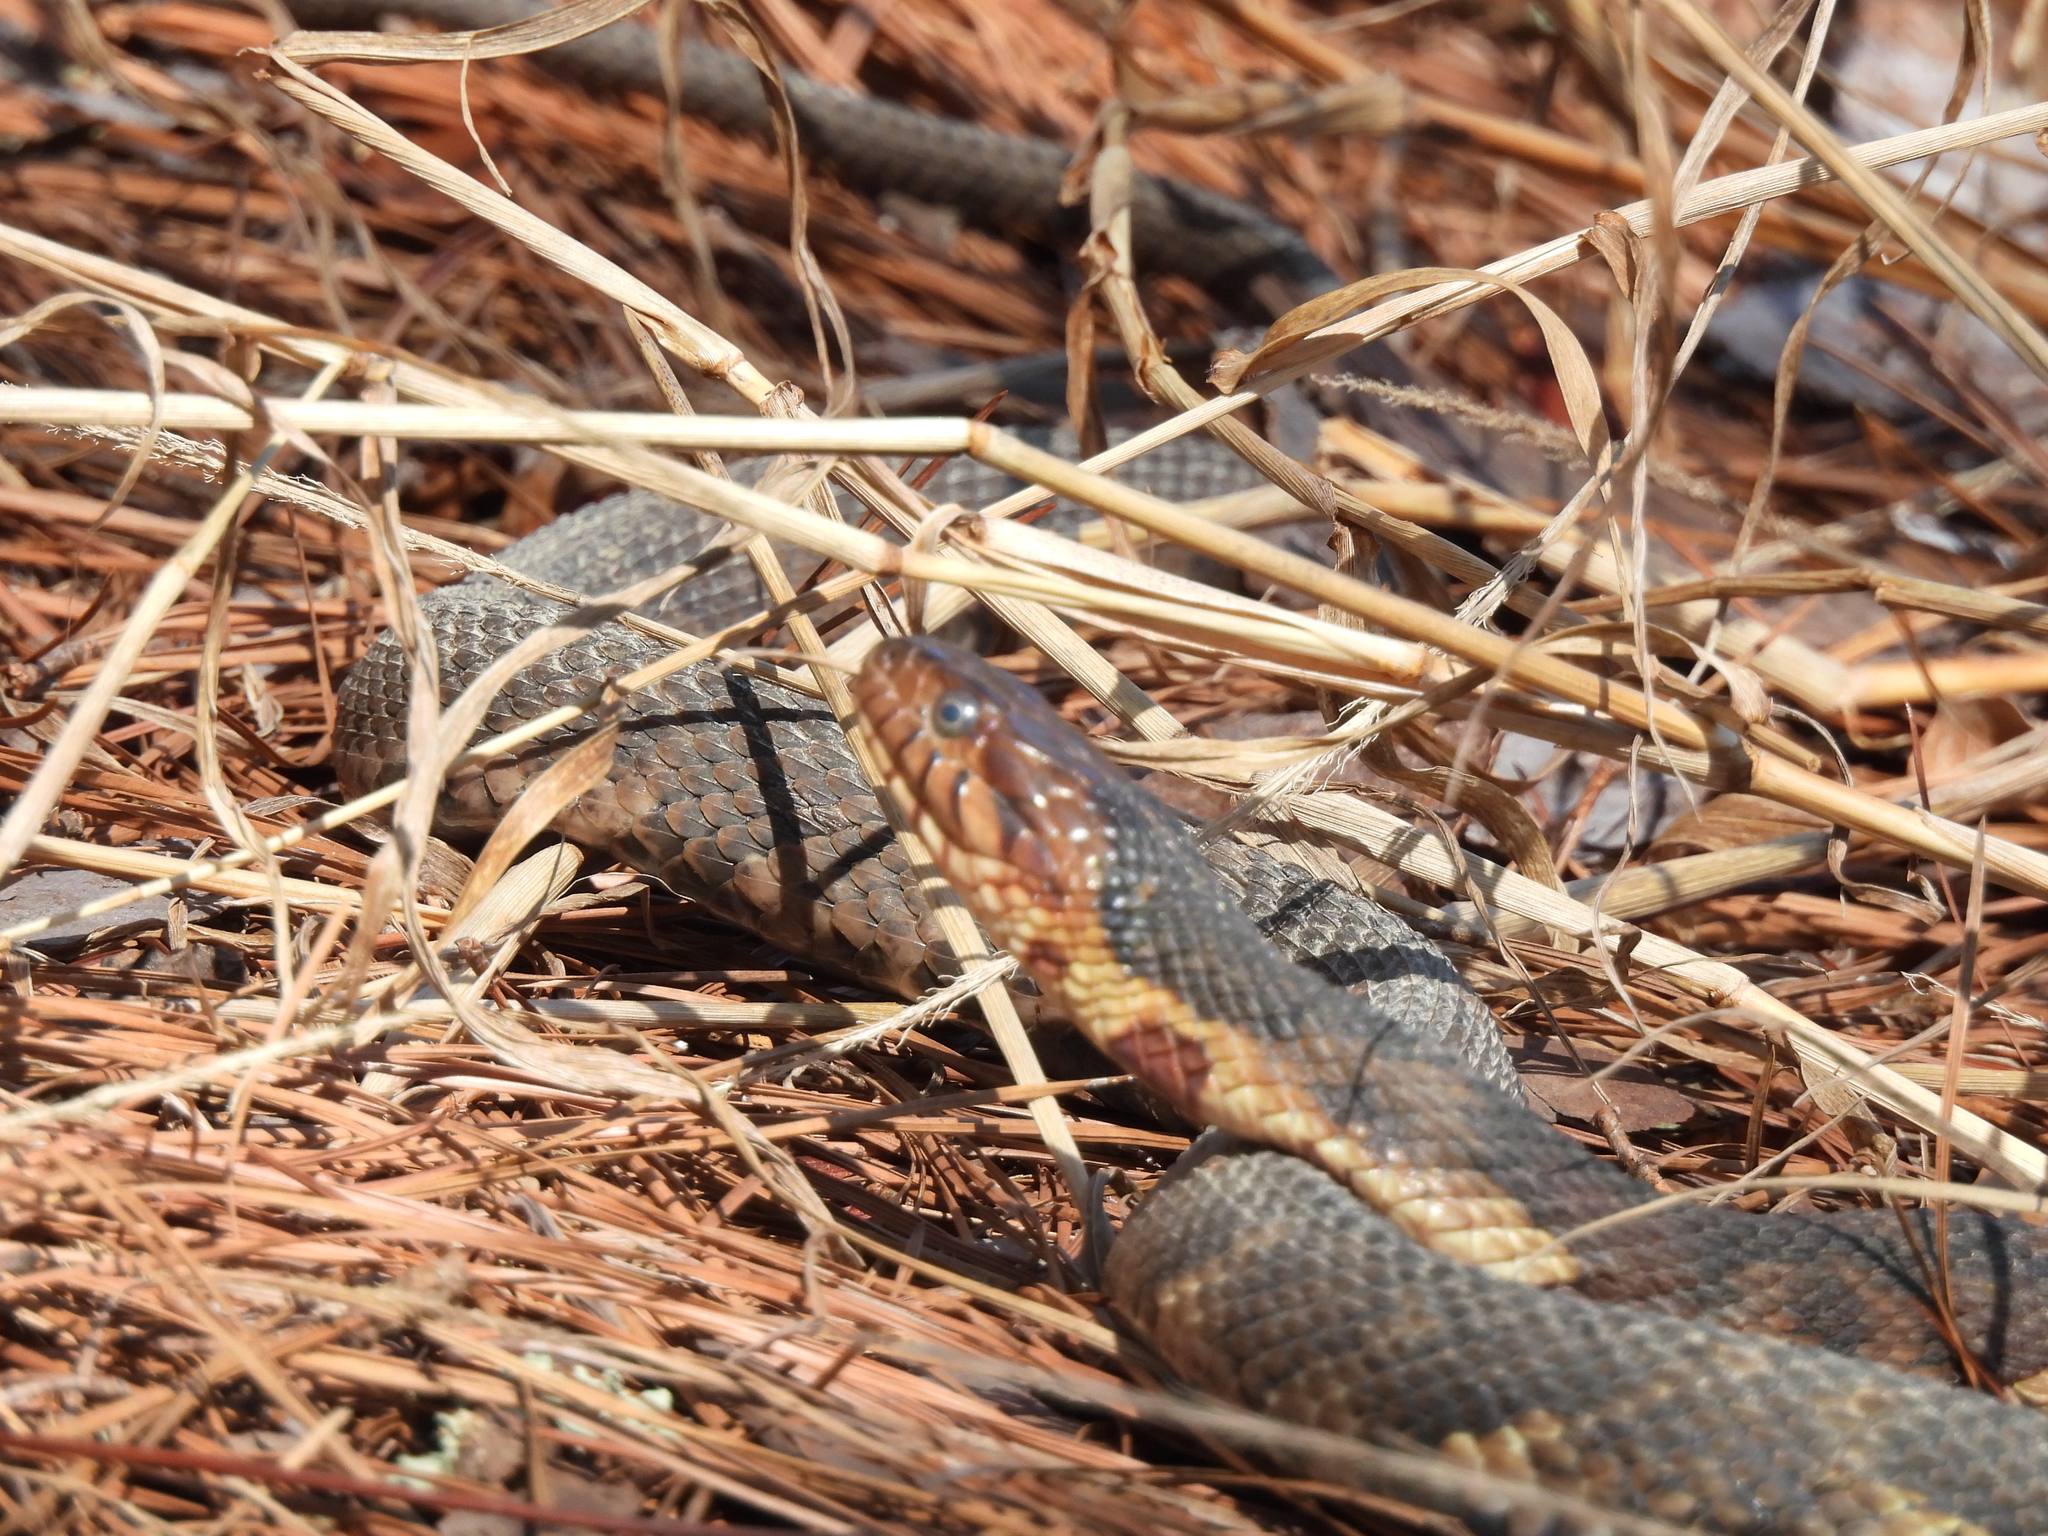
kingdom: Animalia
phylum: Chordata
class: Squamata
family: Colubridae
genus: Nerodia
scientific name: Nerodia fasciata
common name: Southern water snake
